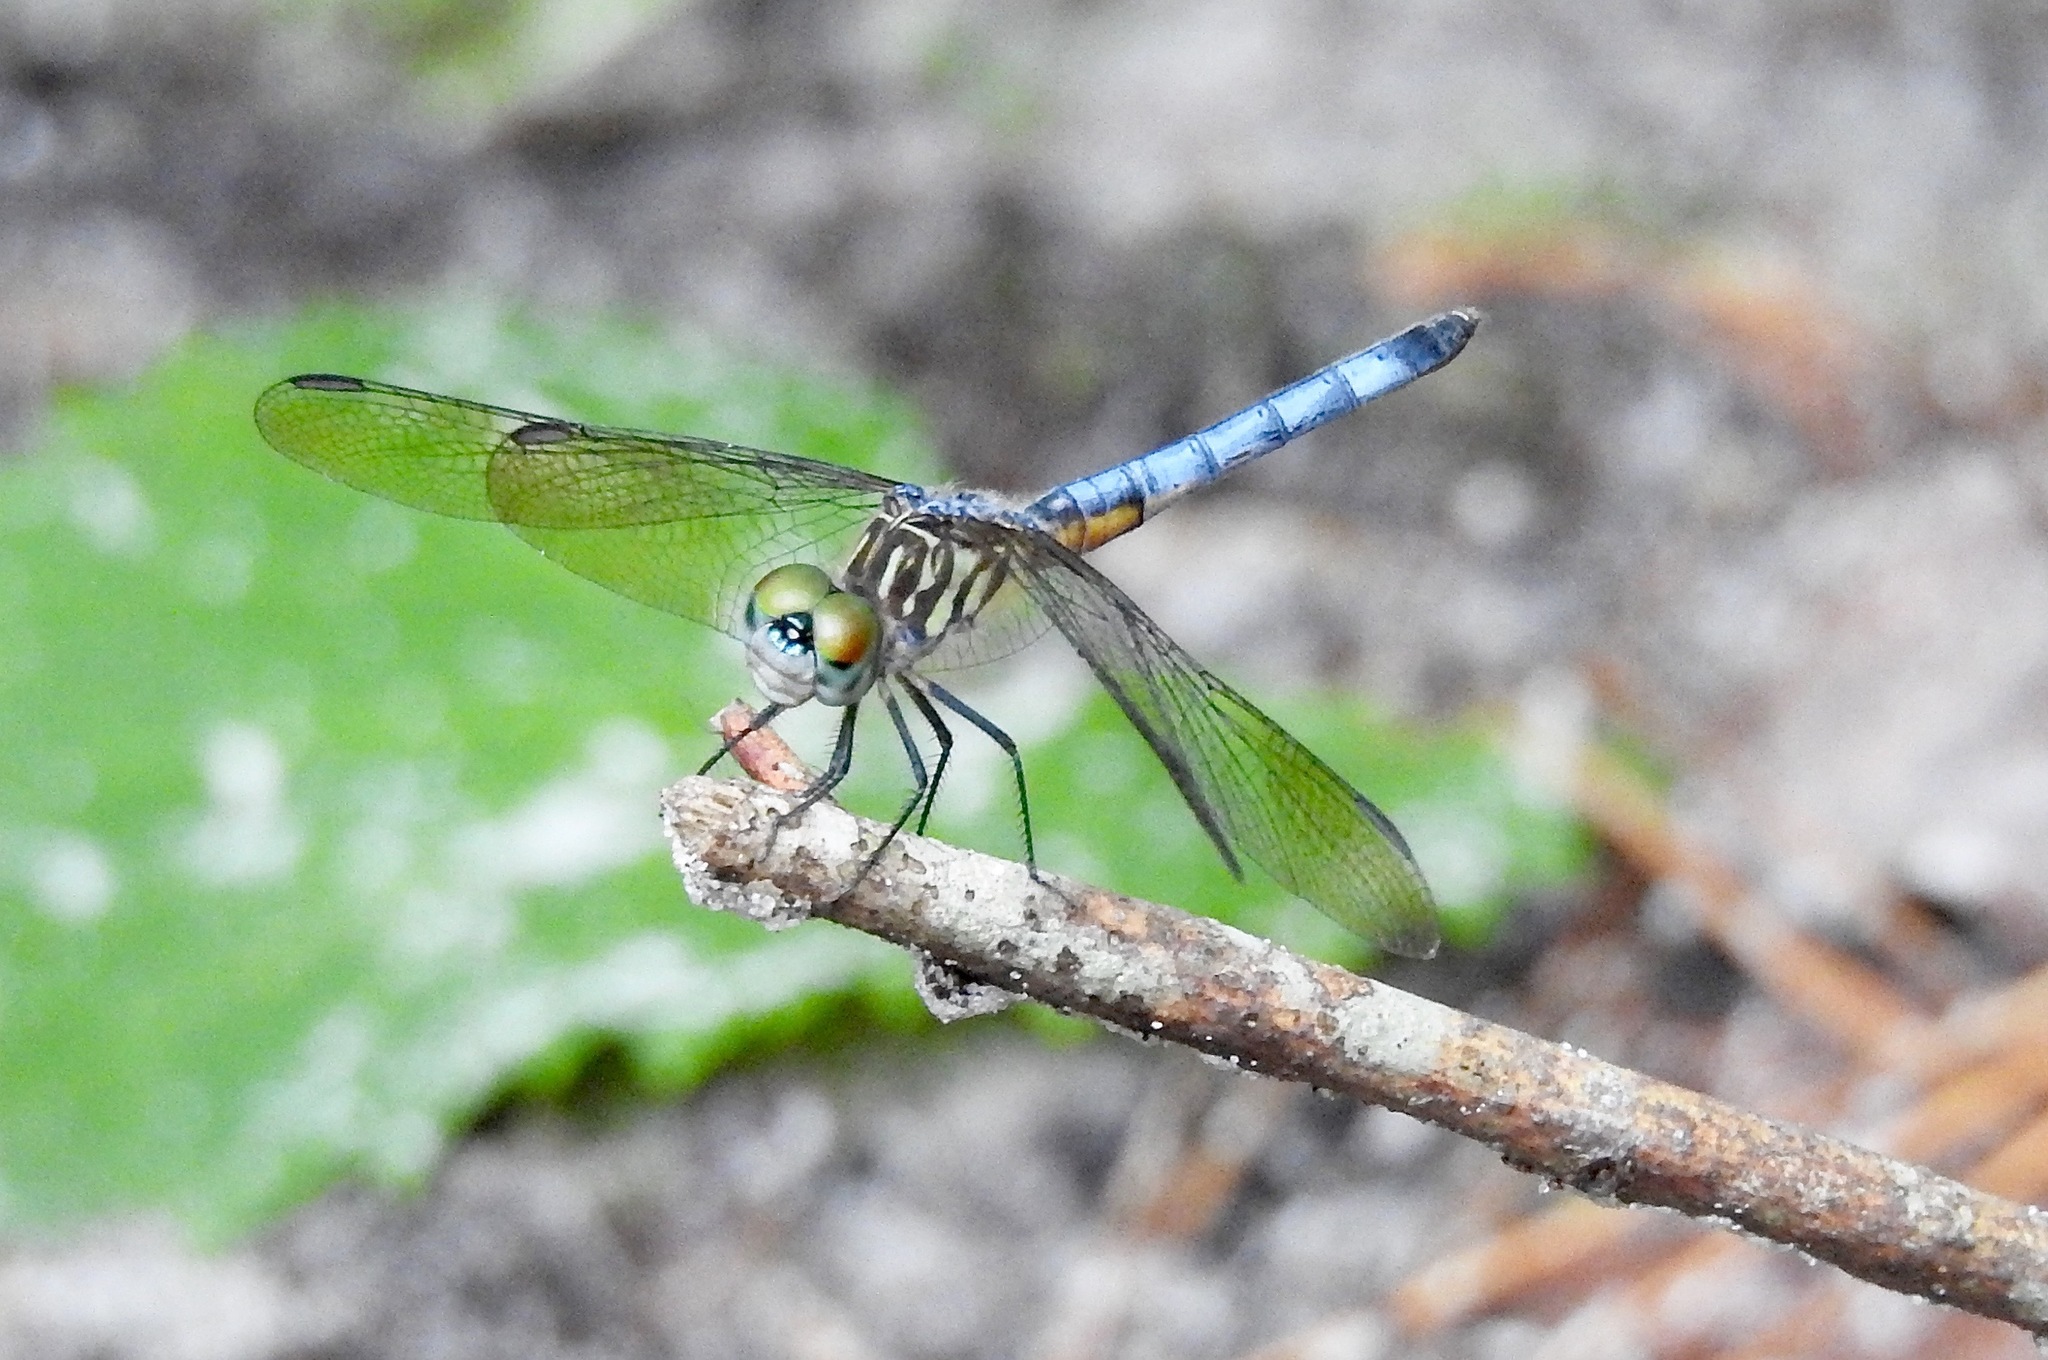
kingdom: Animalia
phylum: Arthropoda
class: Insecta
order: Odonata
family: Libellulidae
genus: Pachydiplax
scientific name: Pachydiplax longipennis
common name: Blue dasher
